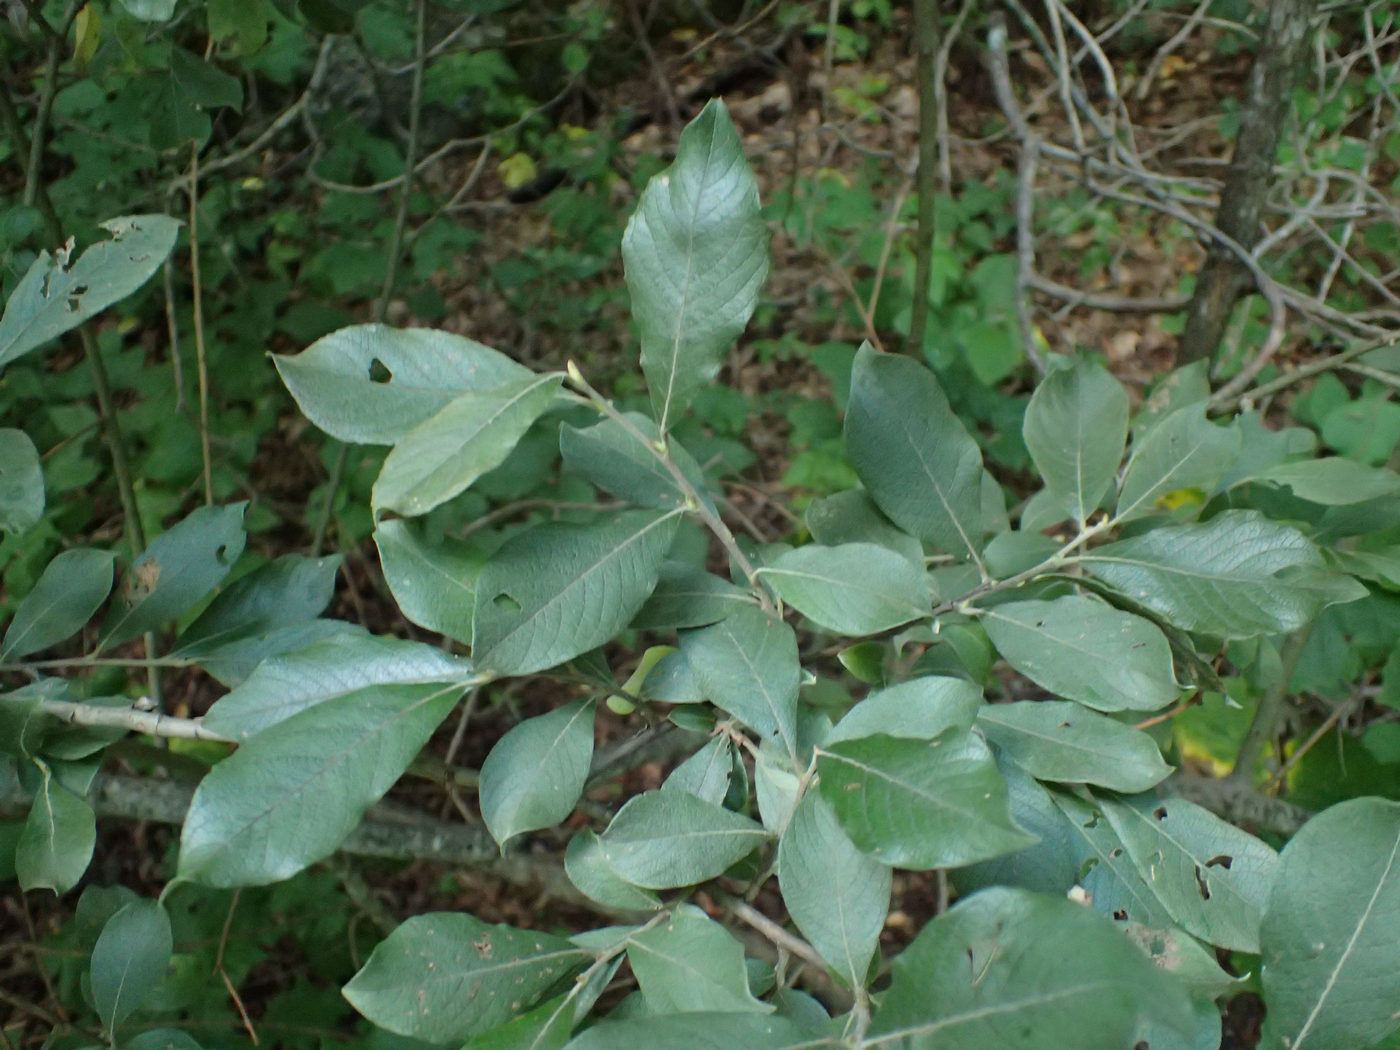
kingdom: Plantae
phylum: Tracheophyta
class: Magnoliopsida
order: Malpighiales
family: Salicaceae
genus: Salix
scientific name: Salix caprea
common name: Goat willow
